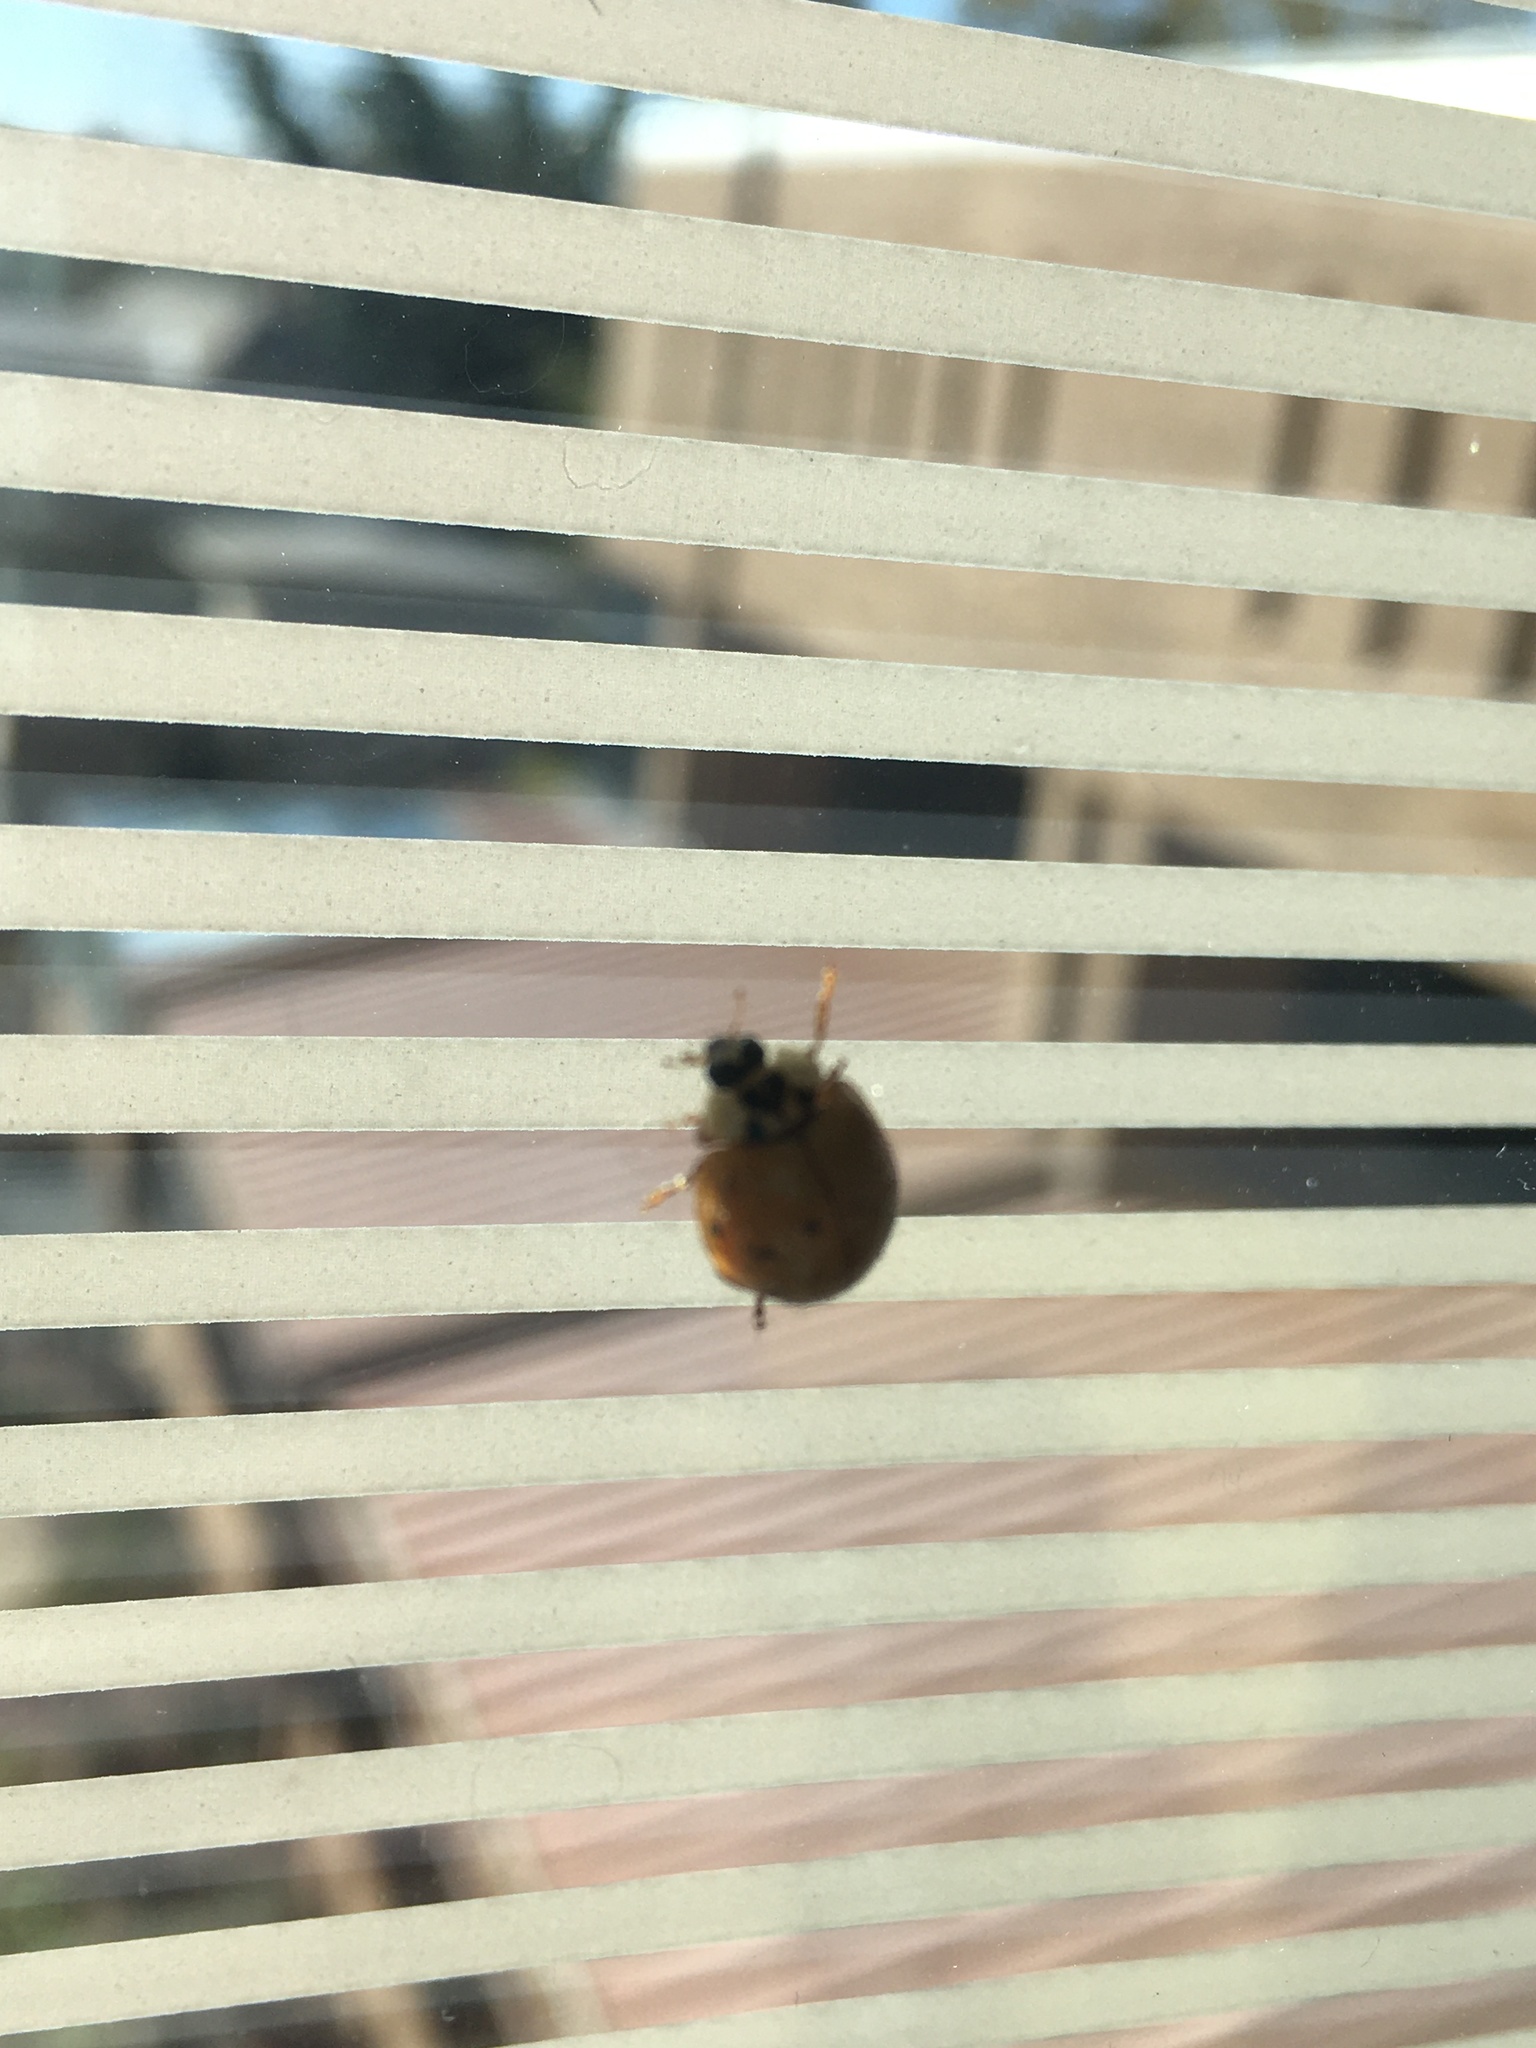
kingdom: Animalia
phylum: Arthropoda
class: Insecta
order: Coleoptera
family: Coccinellidae
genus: Harmonia
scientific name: Harmonia axyridis
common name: Harlequin ladybird
